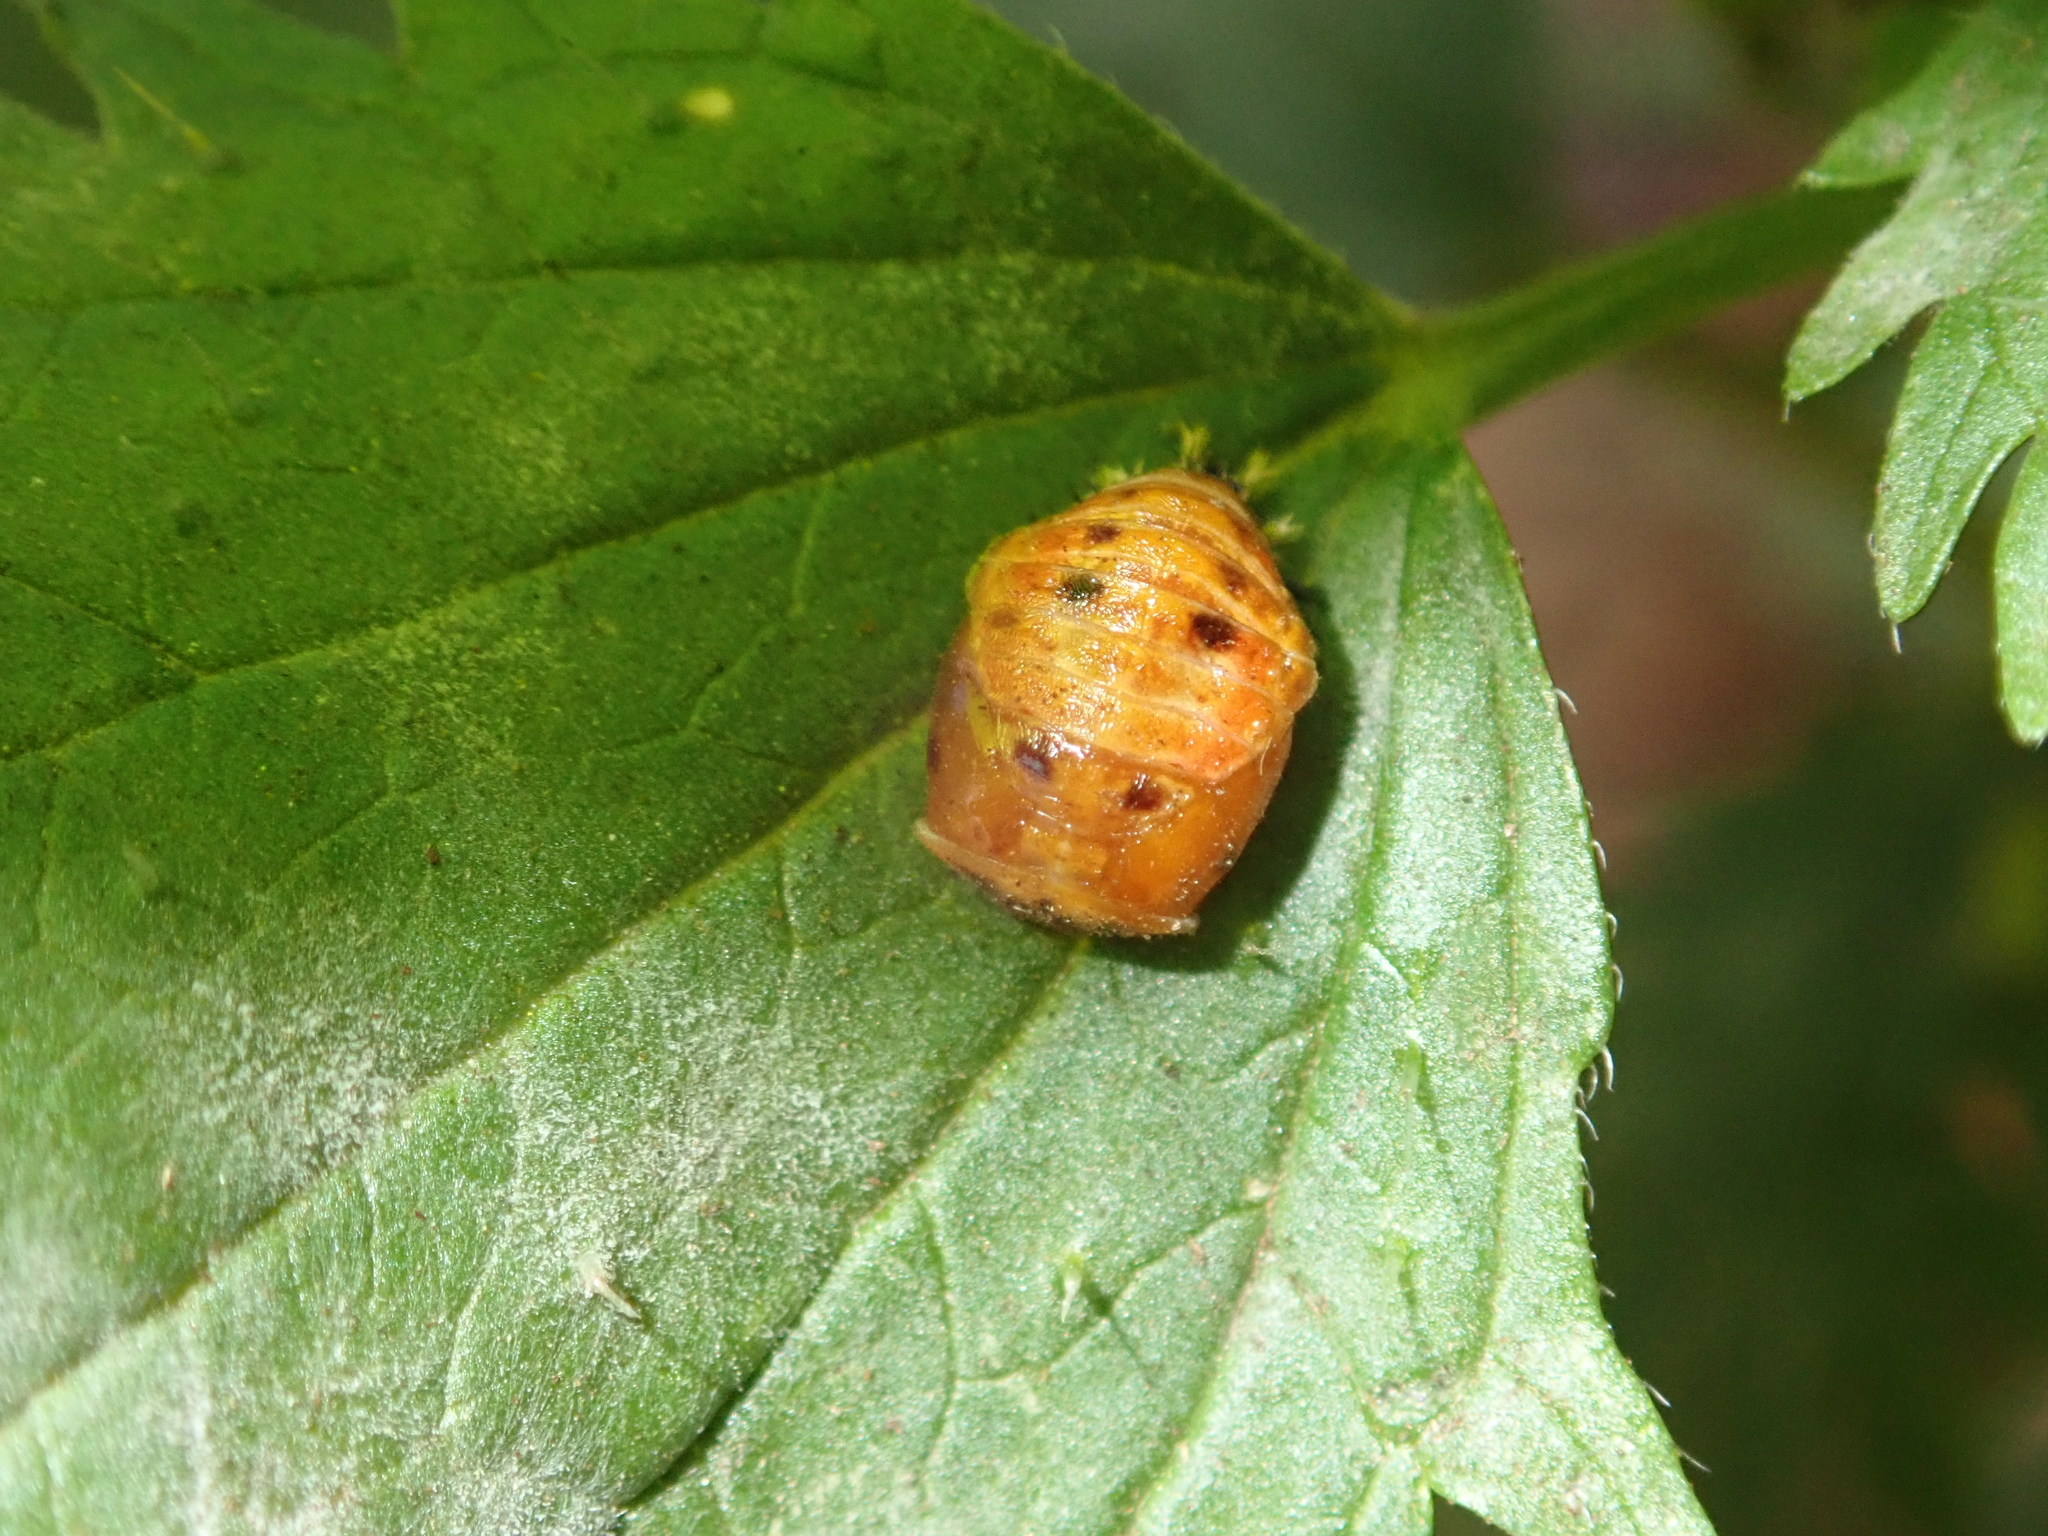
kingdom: Animalia
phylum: Arthropoda
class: Insecta
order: Coleoptera
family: Coccinellidae
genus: Harmonia
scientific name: Harmonia axyridis
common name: Harlequin ladybird
